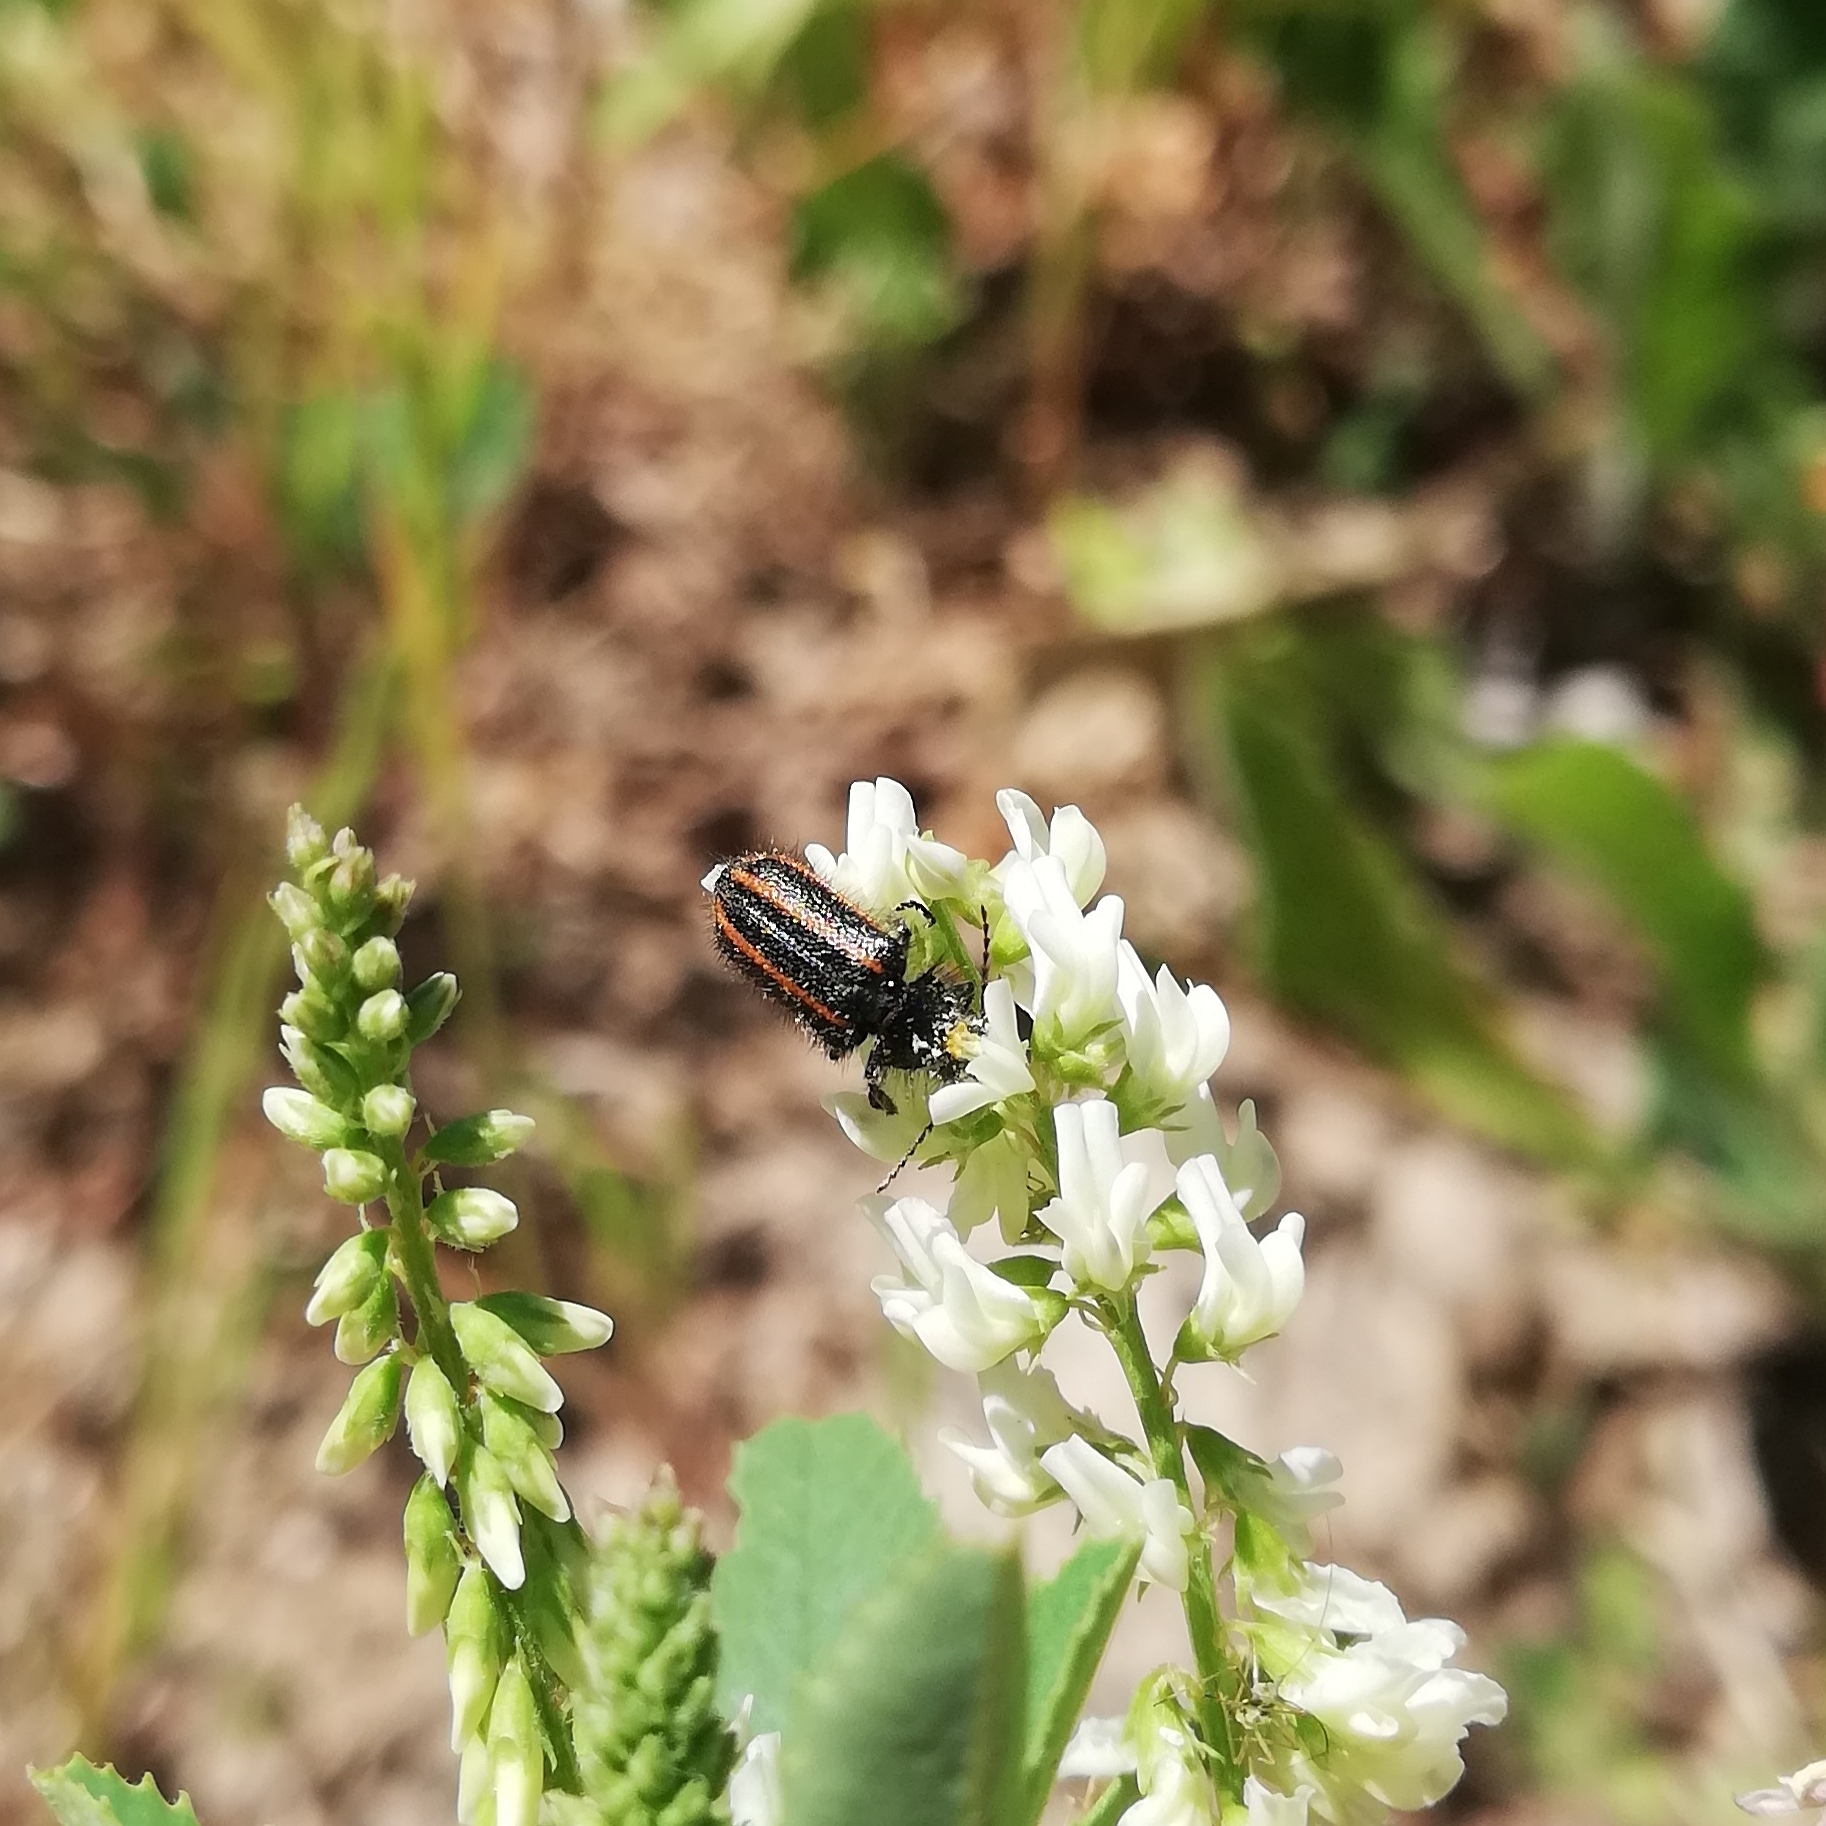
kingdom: Animalia
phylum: Arthropoda
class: Insecta
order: Coleoptera
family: Melyridae
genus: Astylus
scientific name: Astylus
